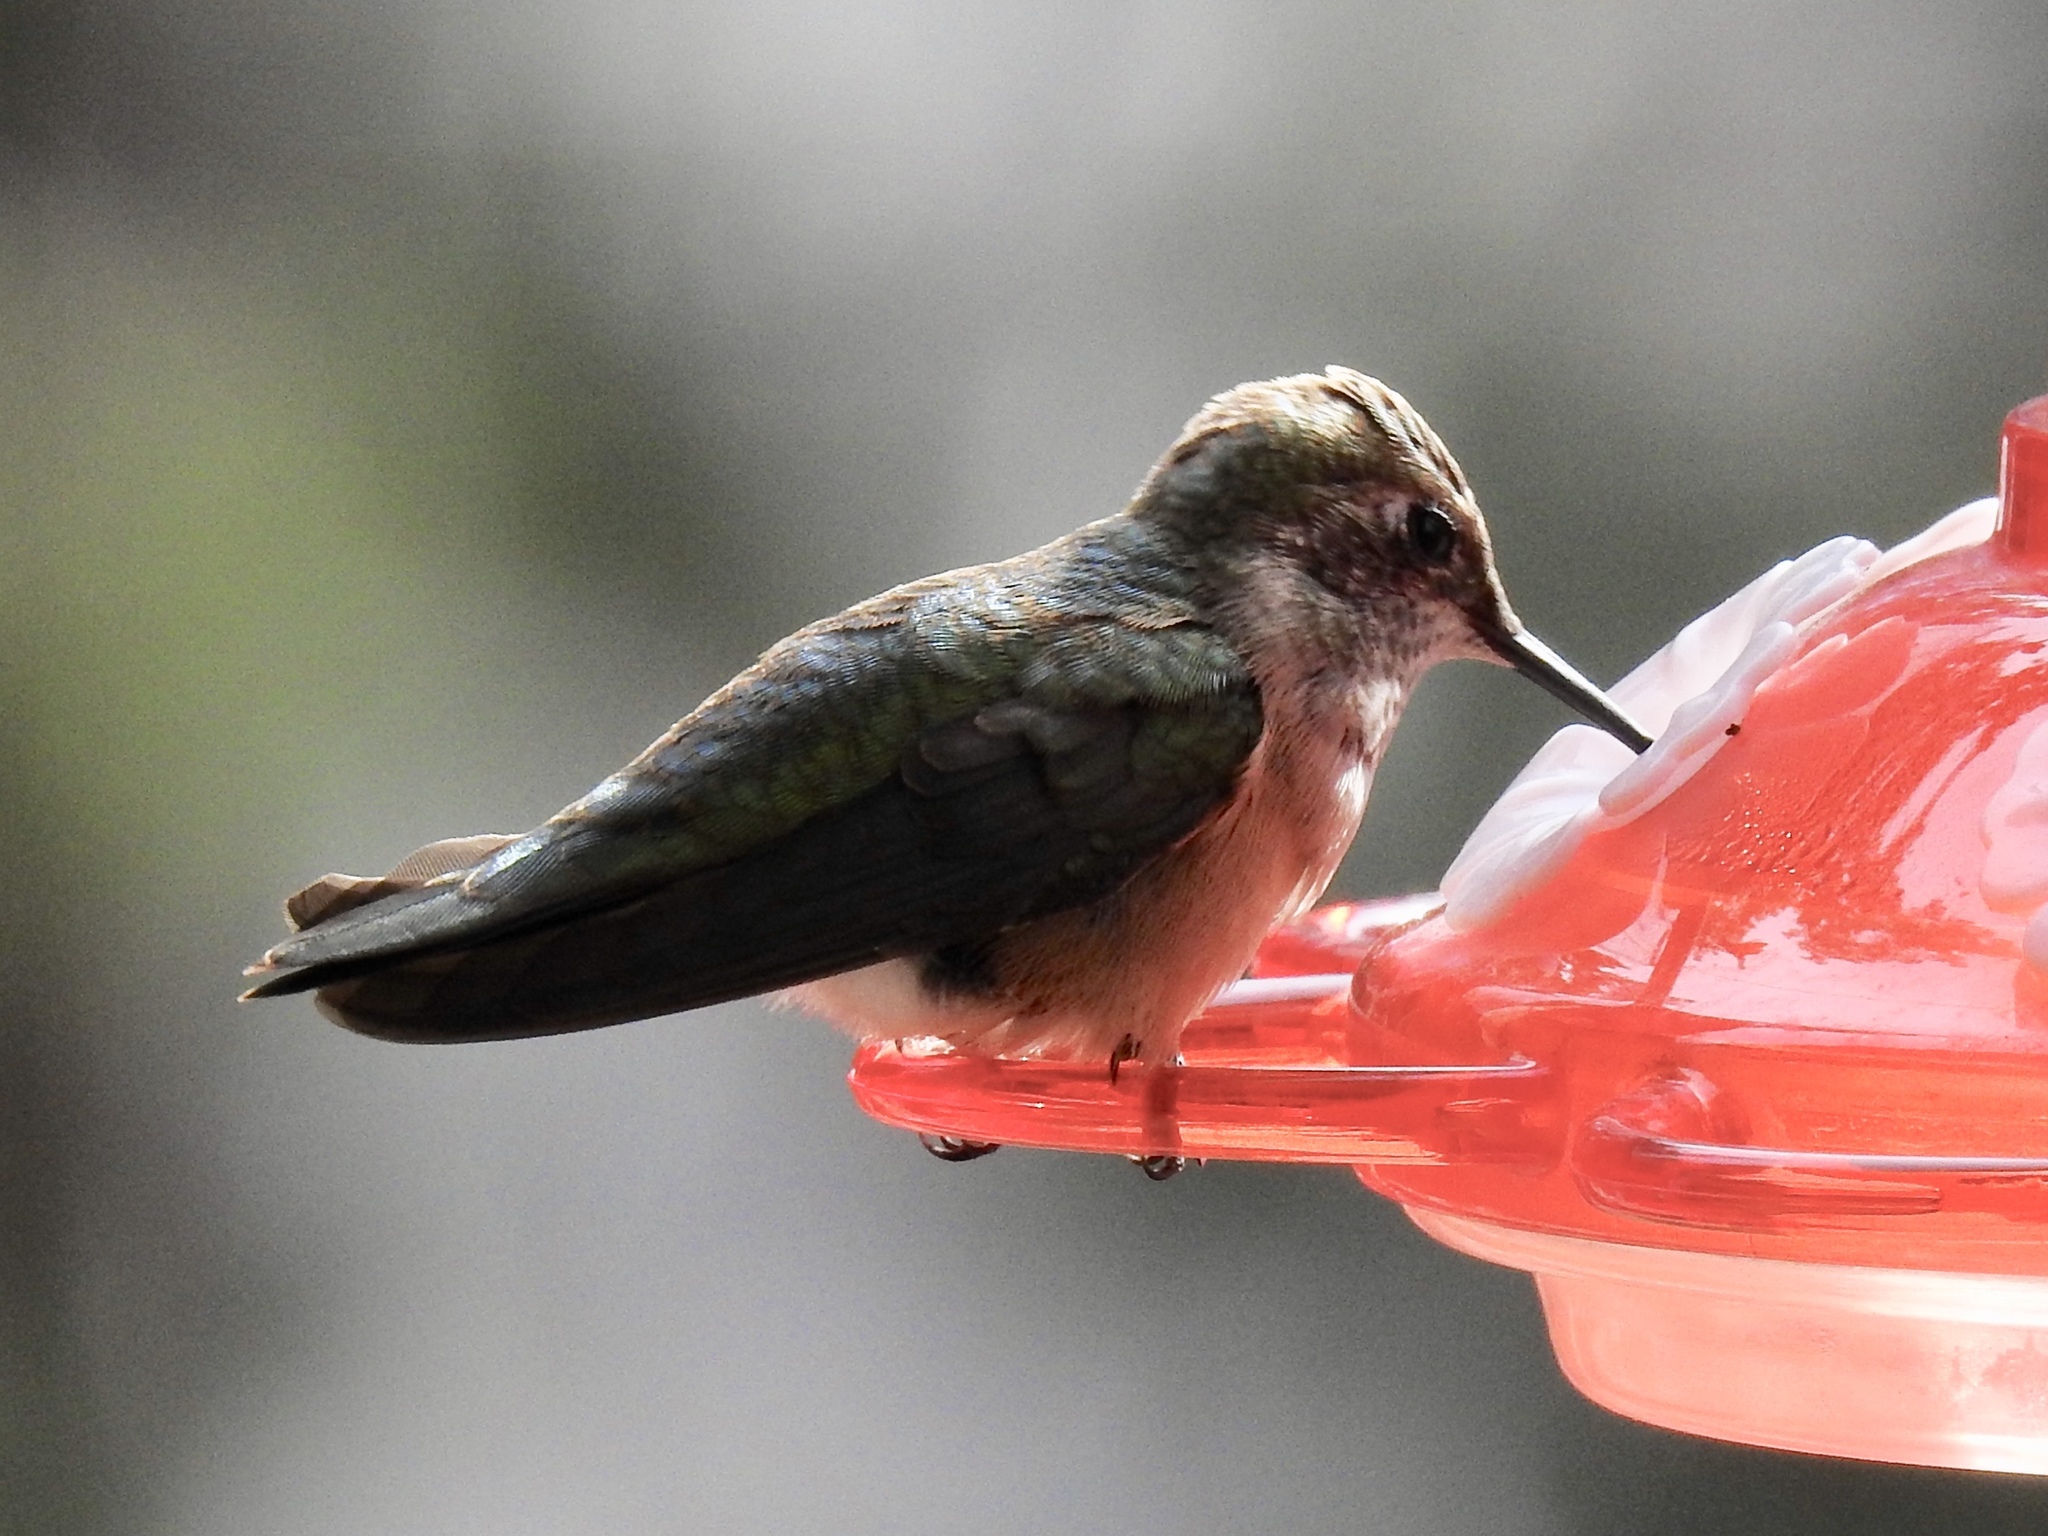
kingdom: Animalia
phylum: Chordata
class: Aves
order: Apodiformes
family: Trochilidae
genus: Selasphorus
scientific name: Selasphorus calliope
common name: Calliope hummingbird
